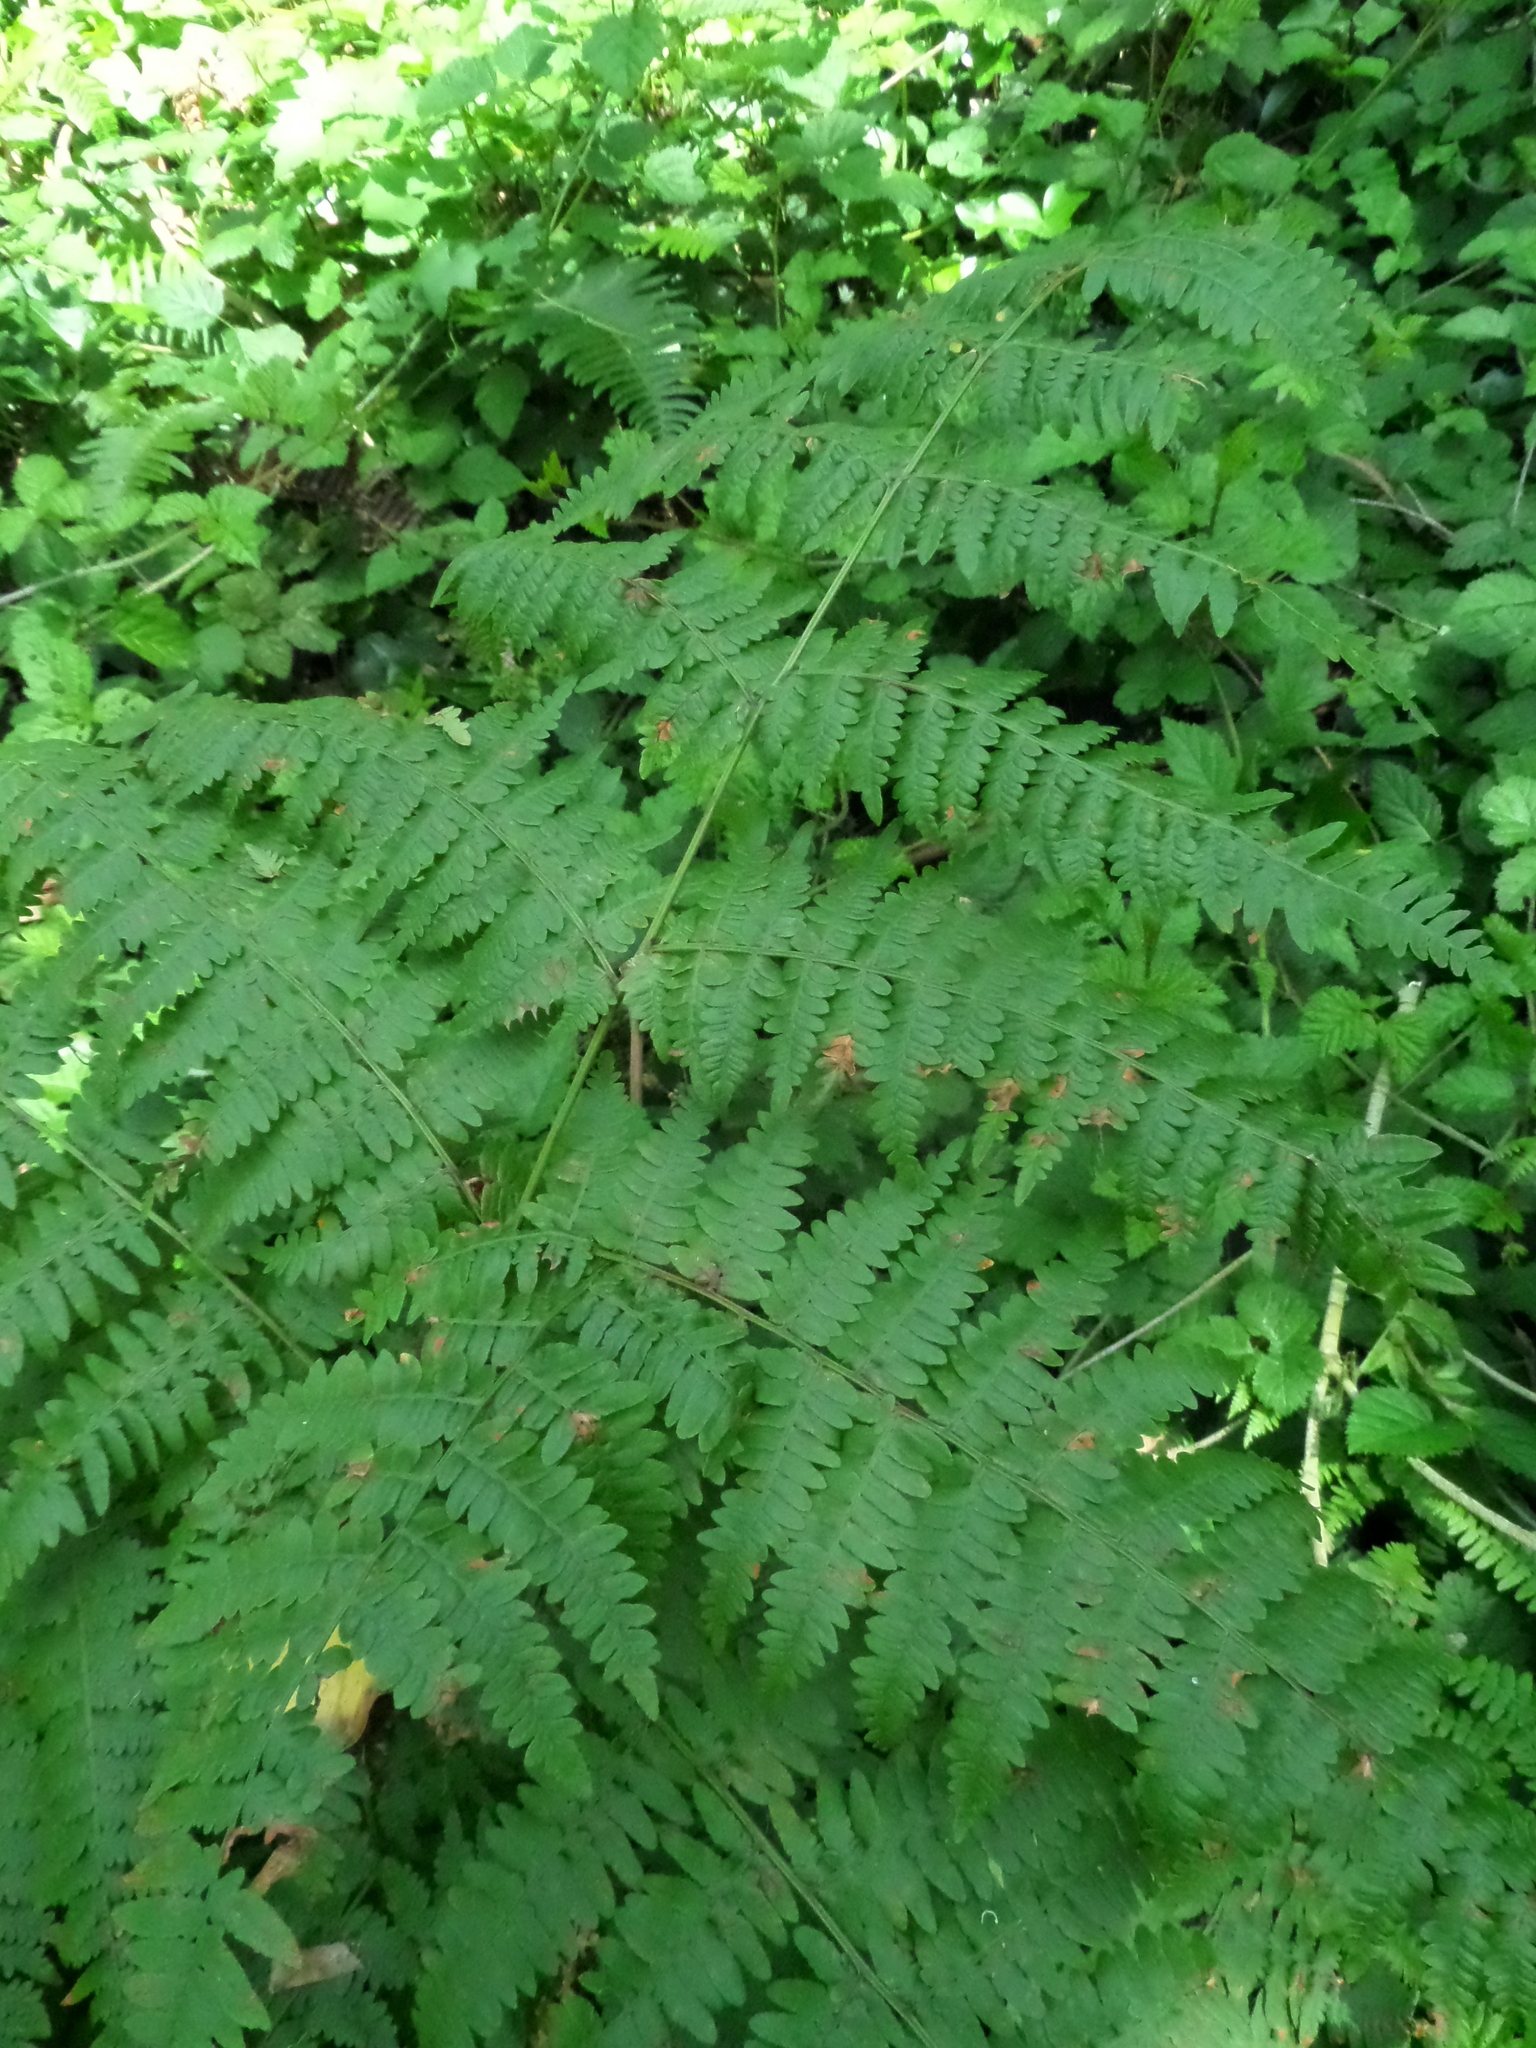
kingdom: Plantae
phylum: Tracheophyta
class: Polypodiopsida
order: Polypodiales
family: Dennstaedtiaceae
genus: Pteridium
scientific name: Pteridium aquilinum
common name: Bracken
